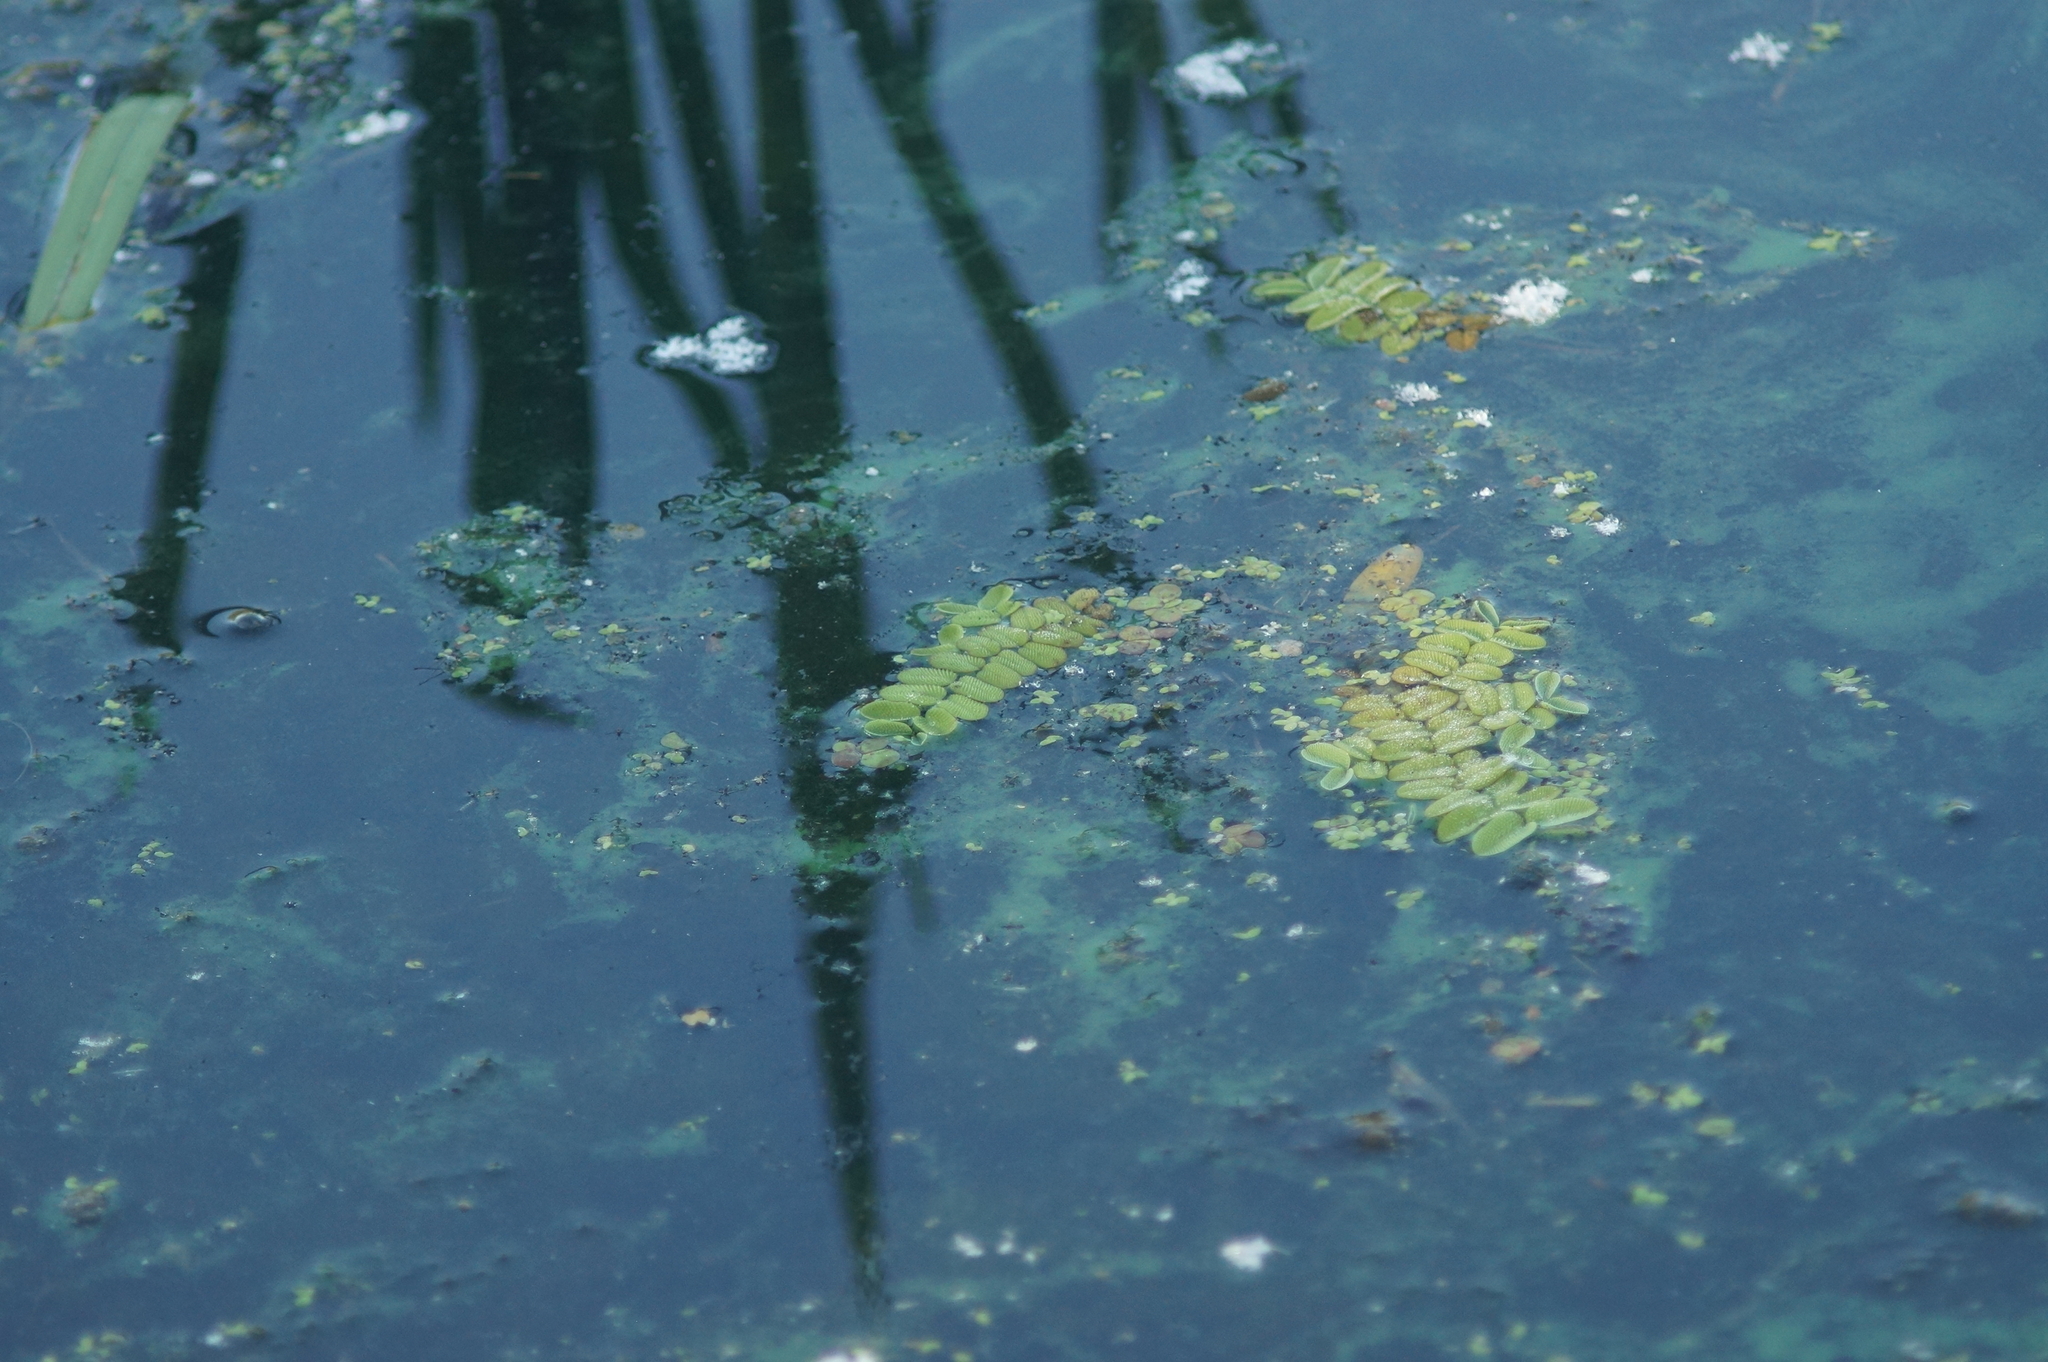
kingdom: Plantae
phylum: Tracheophyta
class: Polypodiopsida
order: Salviniales
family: Salviniaceae
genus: Salvinia
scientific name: Salvinia natans
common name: Floating fern
